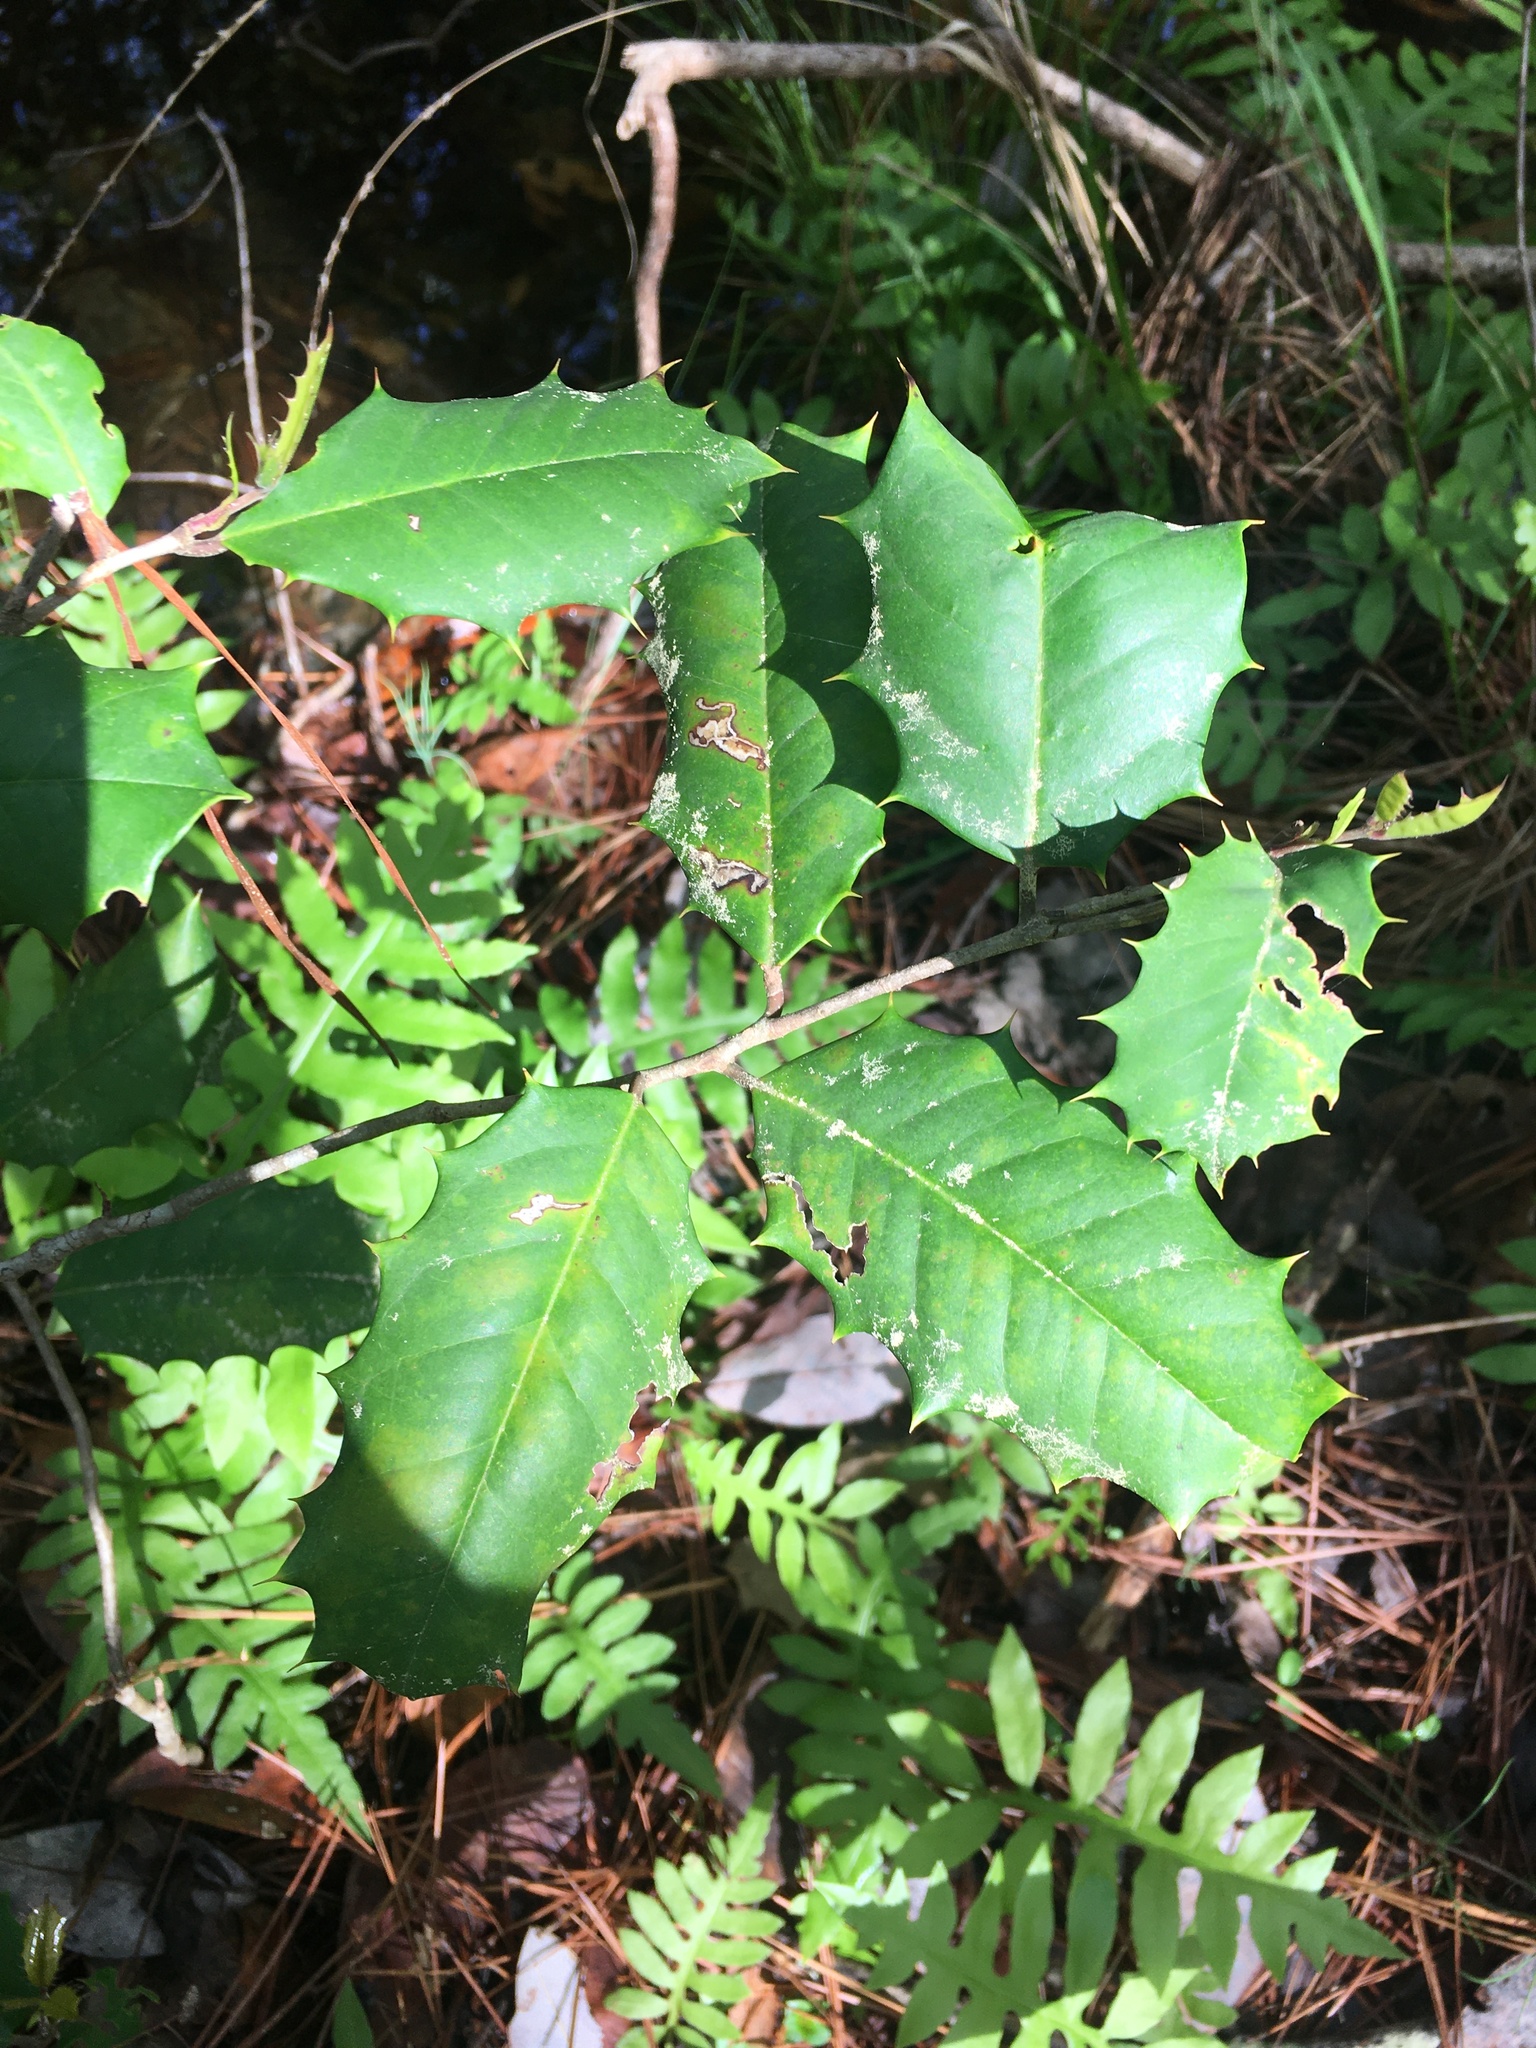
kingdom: Plantae
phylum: Tracheophyta
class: Magnoliopsida
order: Aquifoliales
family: Aquifoliaceae
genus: Ilex
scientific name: Ilex opaca
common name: American holly
